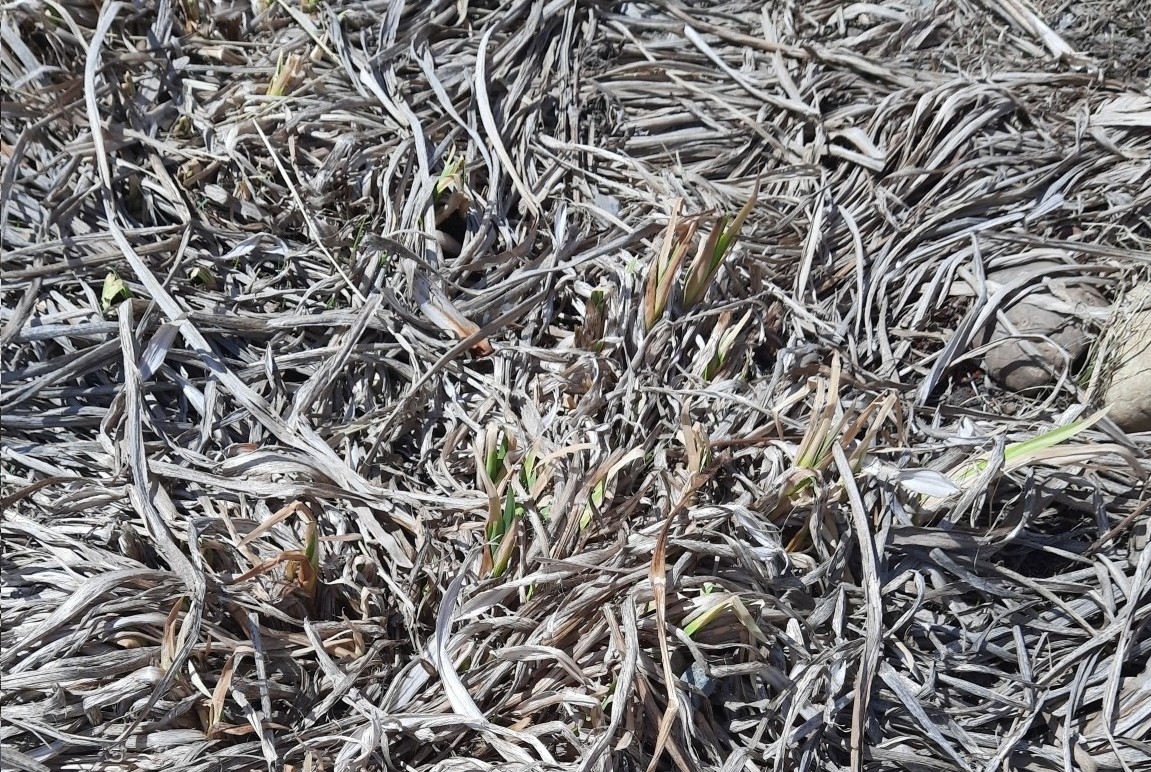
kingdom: Plantae
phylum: Tracheophyta
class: Liliopsida
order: Asparagales
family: Iridaceae
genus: Iris
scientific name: Iris pseudacorus
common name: Yellow flag
